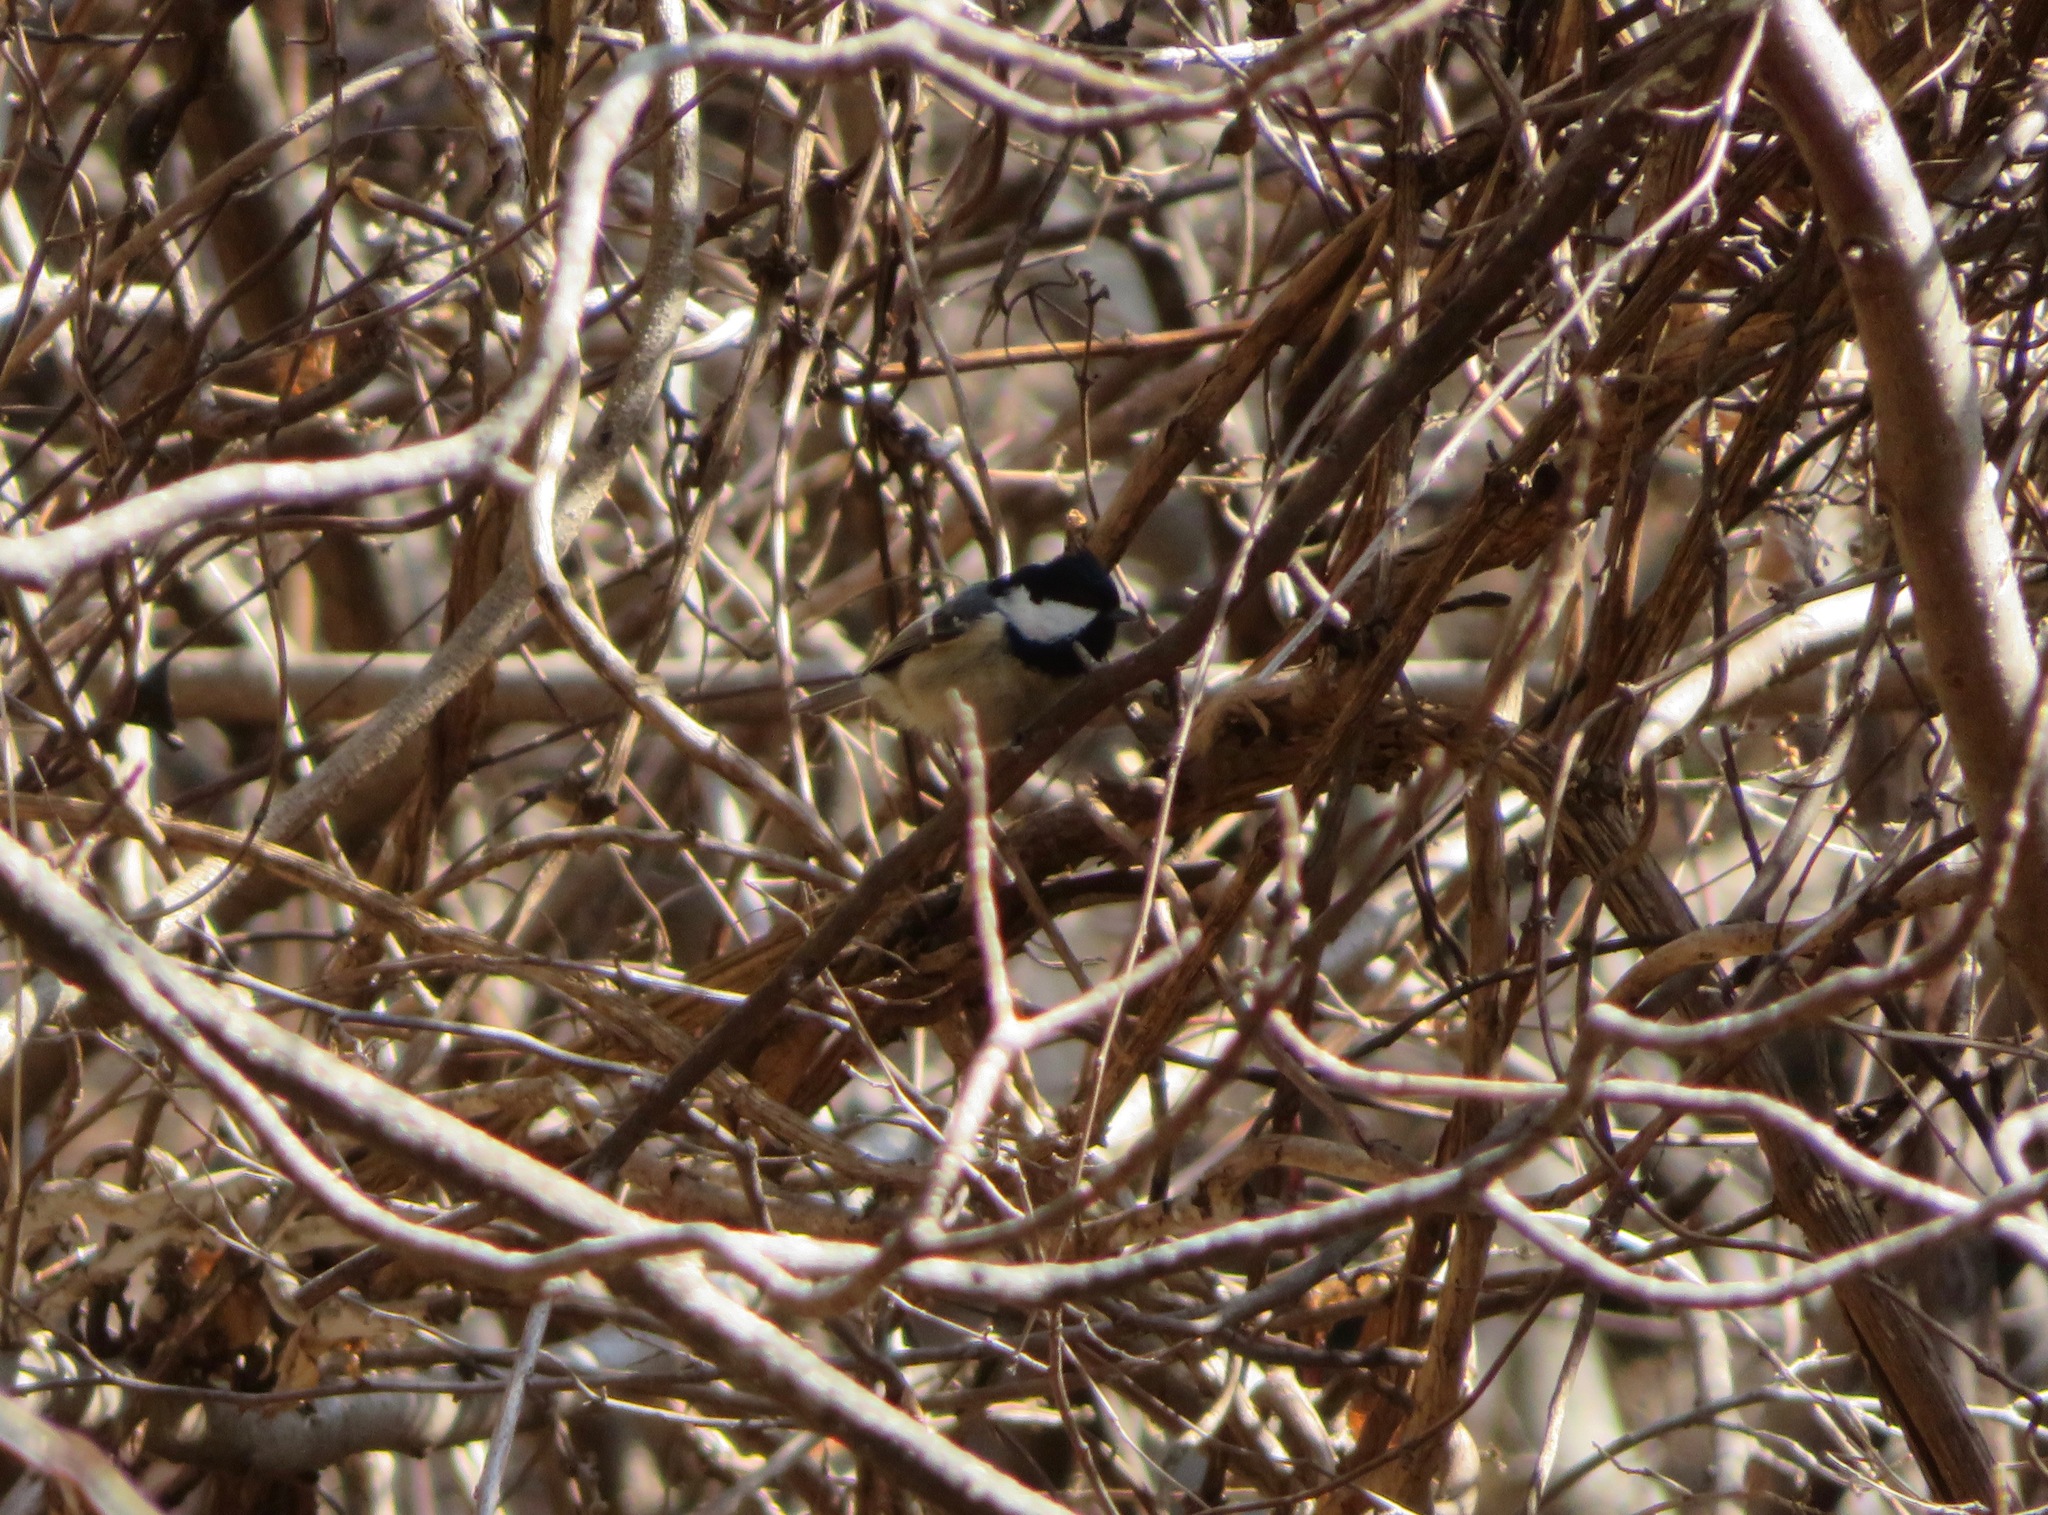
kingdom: Animalia
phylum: Chordata
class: Aves
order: Passeriformes
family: Paridae
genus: Periparus
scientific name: Periparus ater
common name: Coal tit
